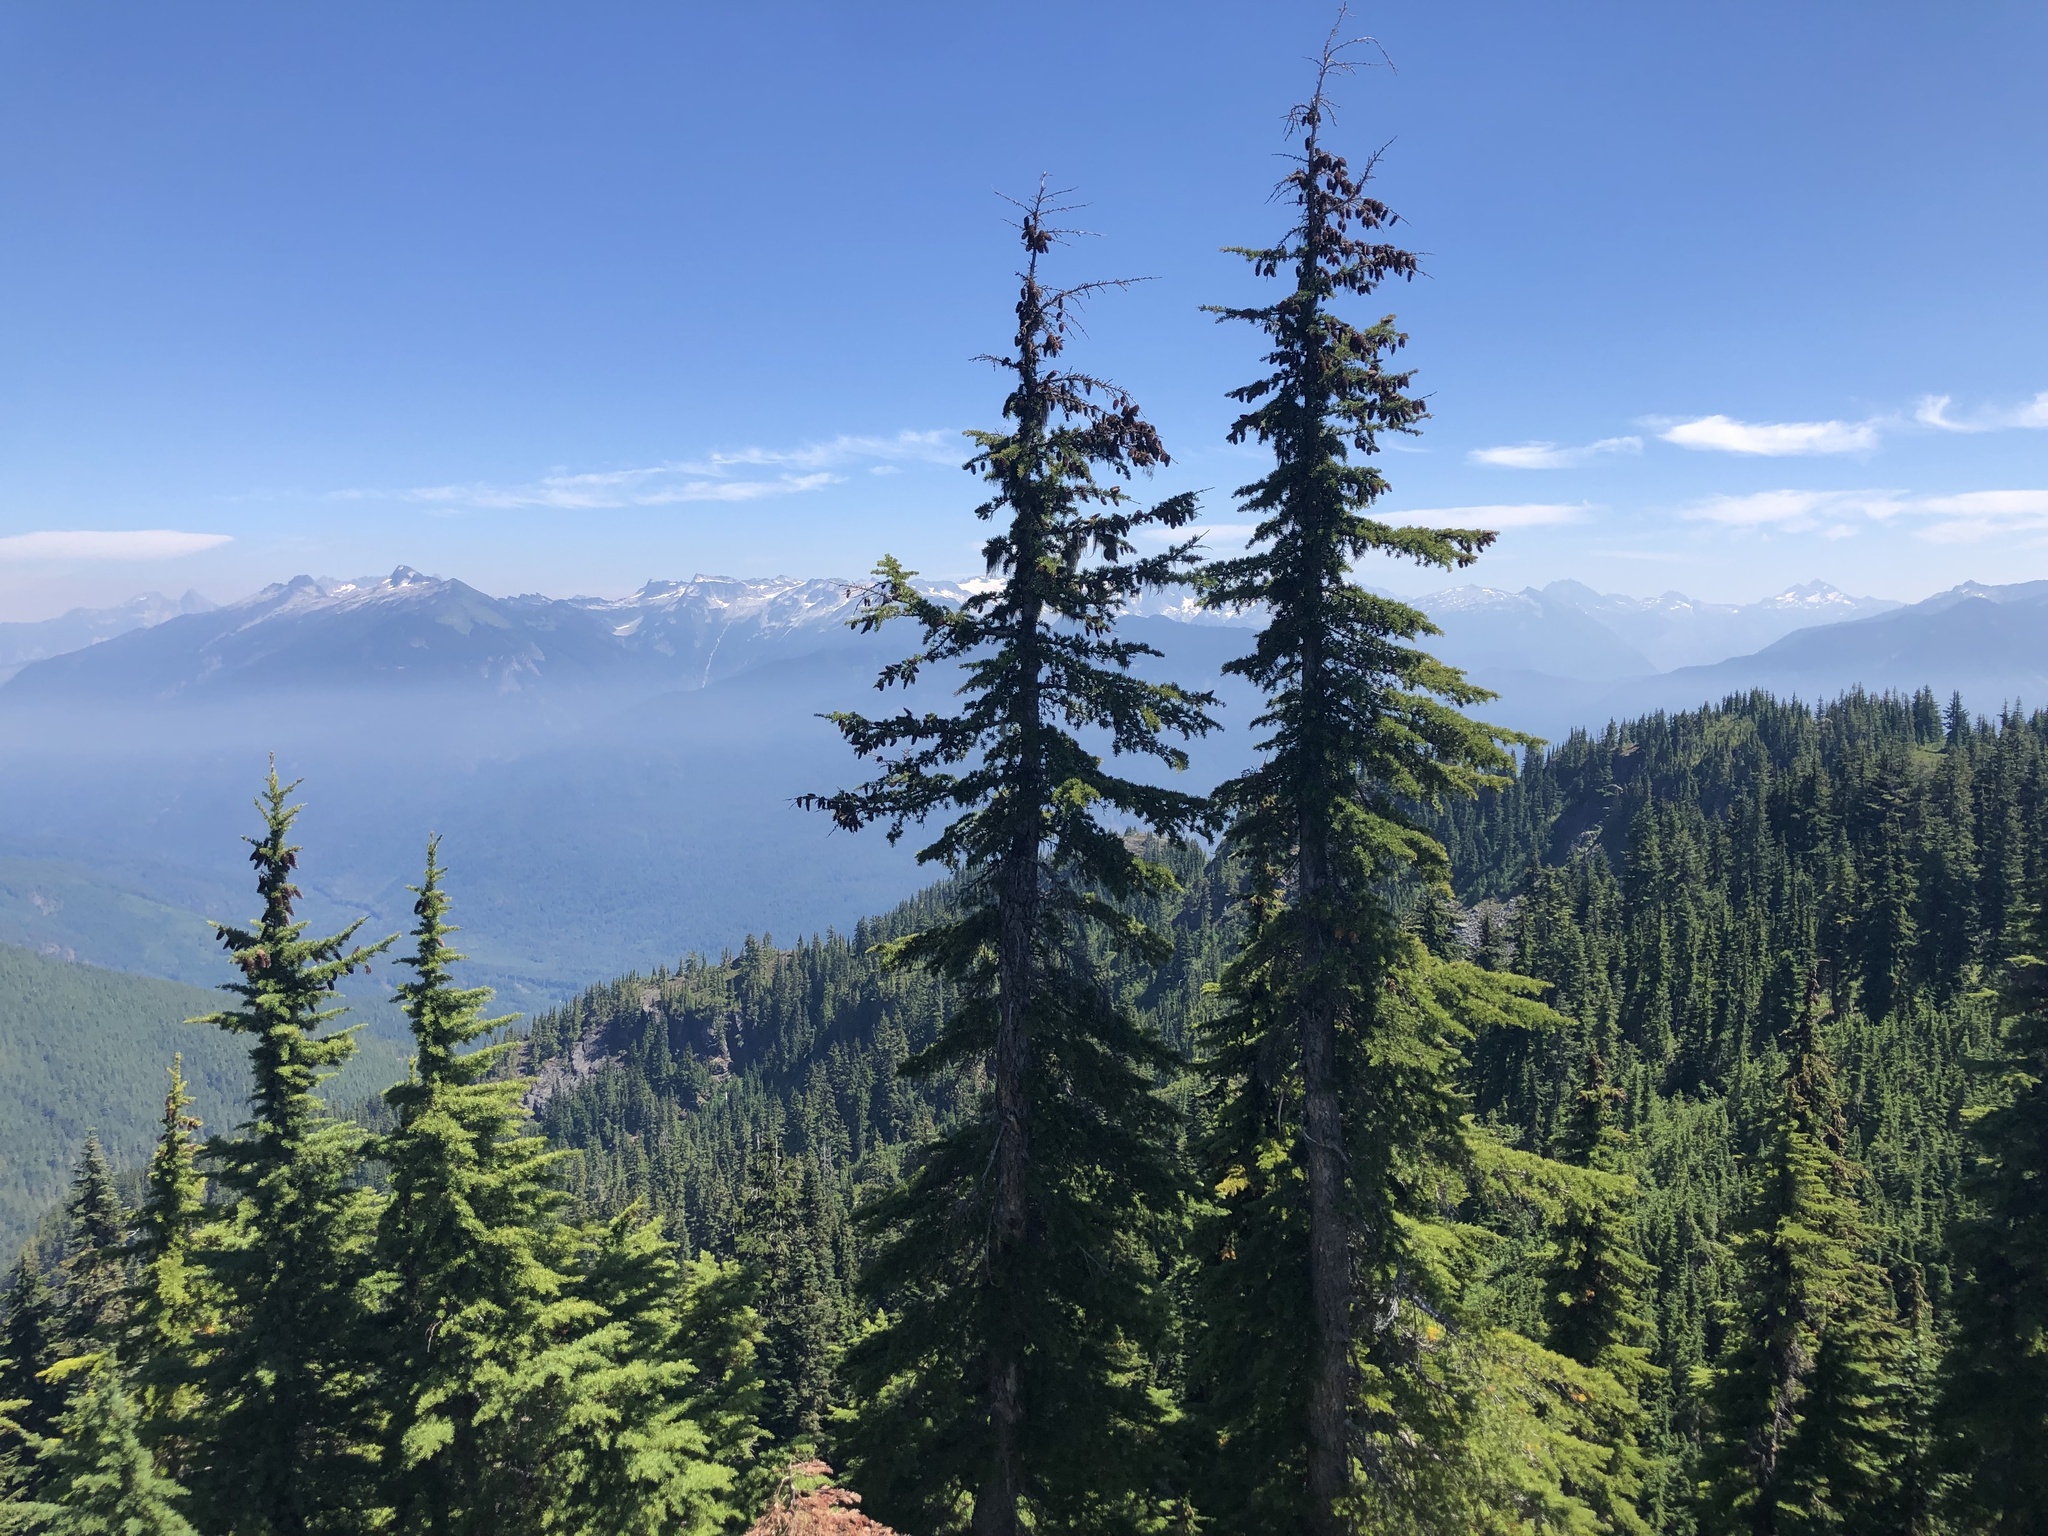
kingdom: Plantae
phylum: Tracheophyta
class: Pinopsida
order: Pinales
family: Pinaceae
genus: Tsuga
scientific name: Tsuga mertensiana
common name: Mountain hemlock
